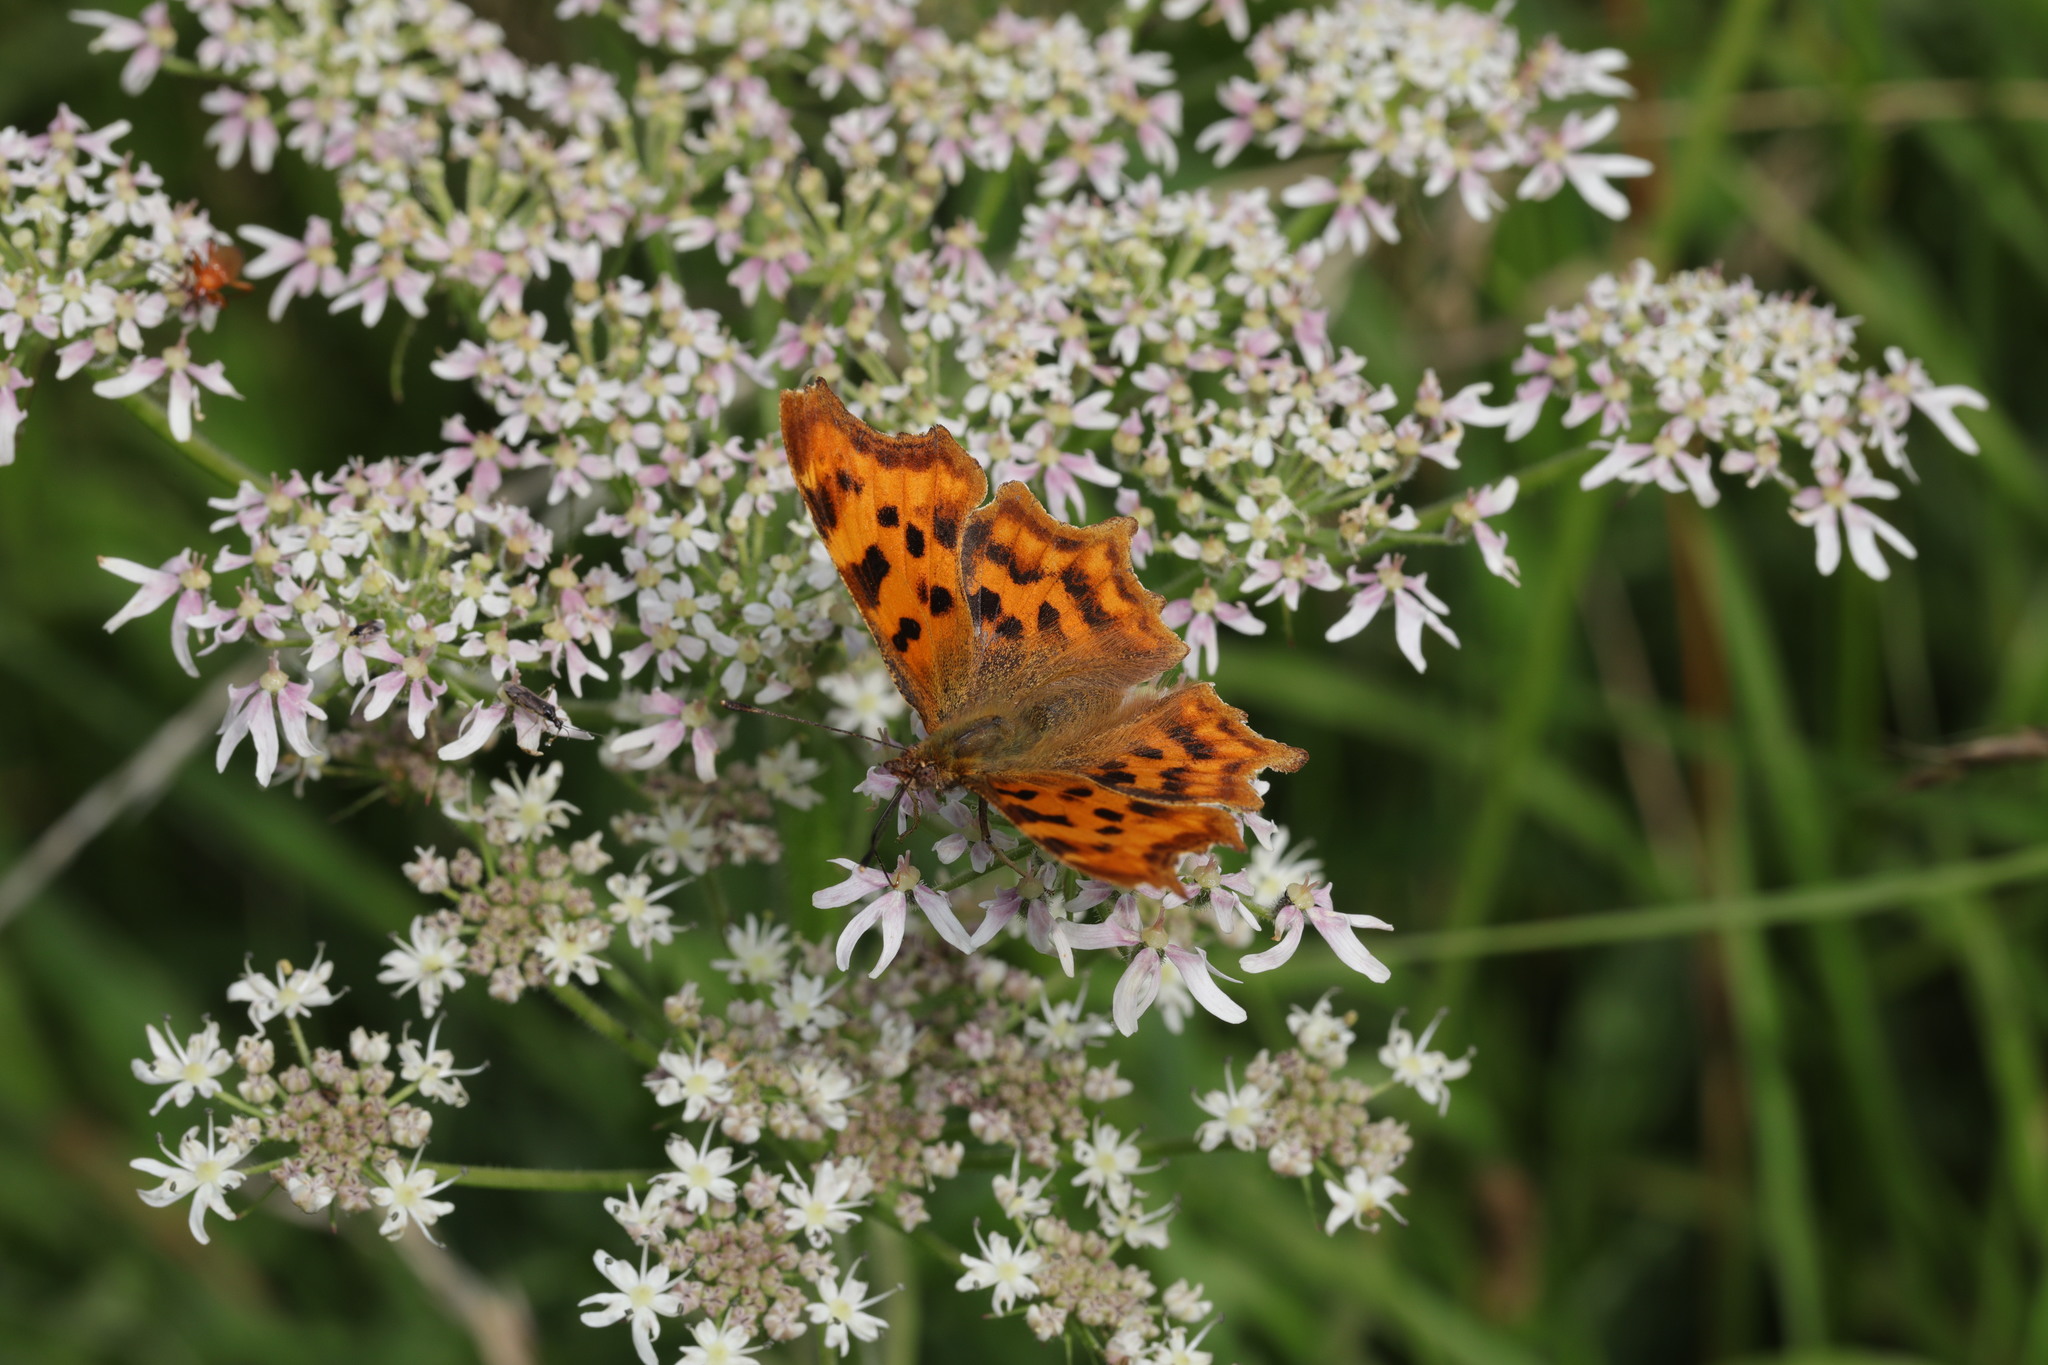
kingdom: Animalia
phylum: Arthropoda
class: Insecta
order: Lepidoptera
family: Nymphalidae
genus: Polygonia
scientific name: Polygonia c-album
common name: Comma
